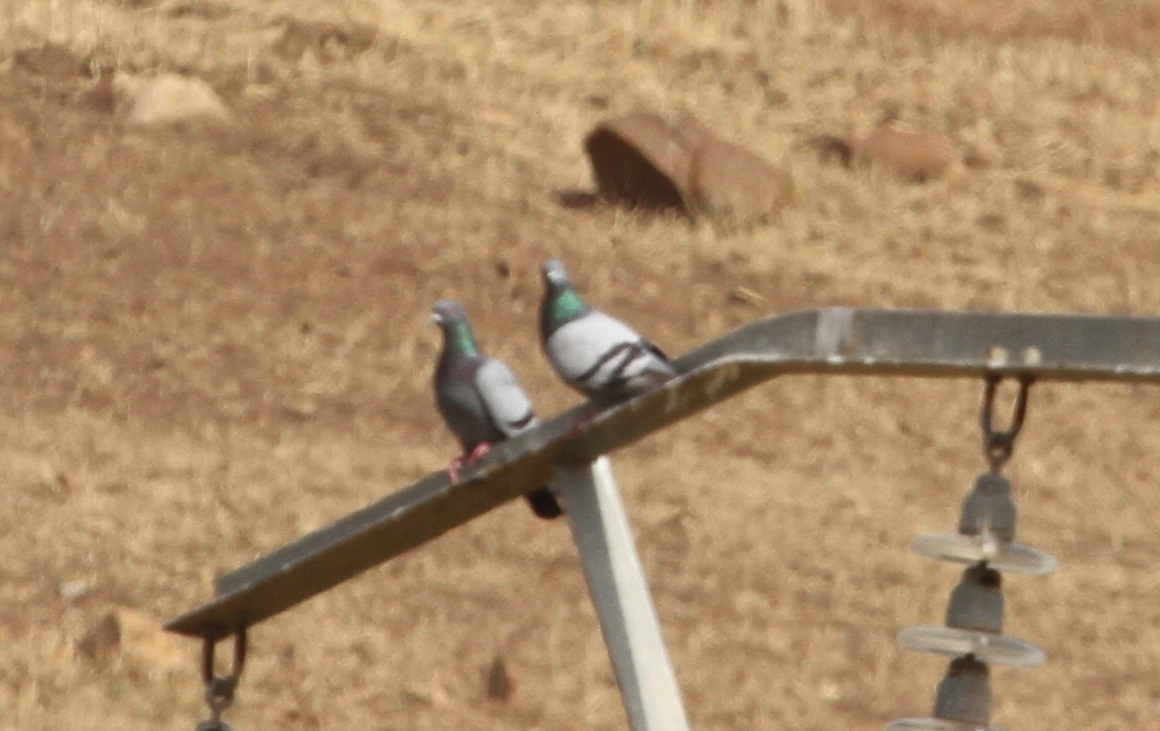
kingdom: Animalia
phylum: Chordata
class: Aves
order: Columbiformes
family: Columbidae
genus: Columba
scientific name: Columba livia
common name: Rock pigeon
